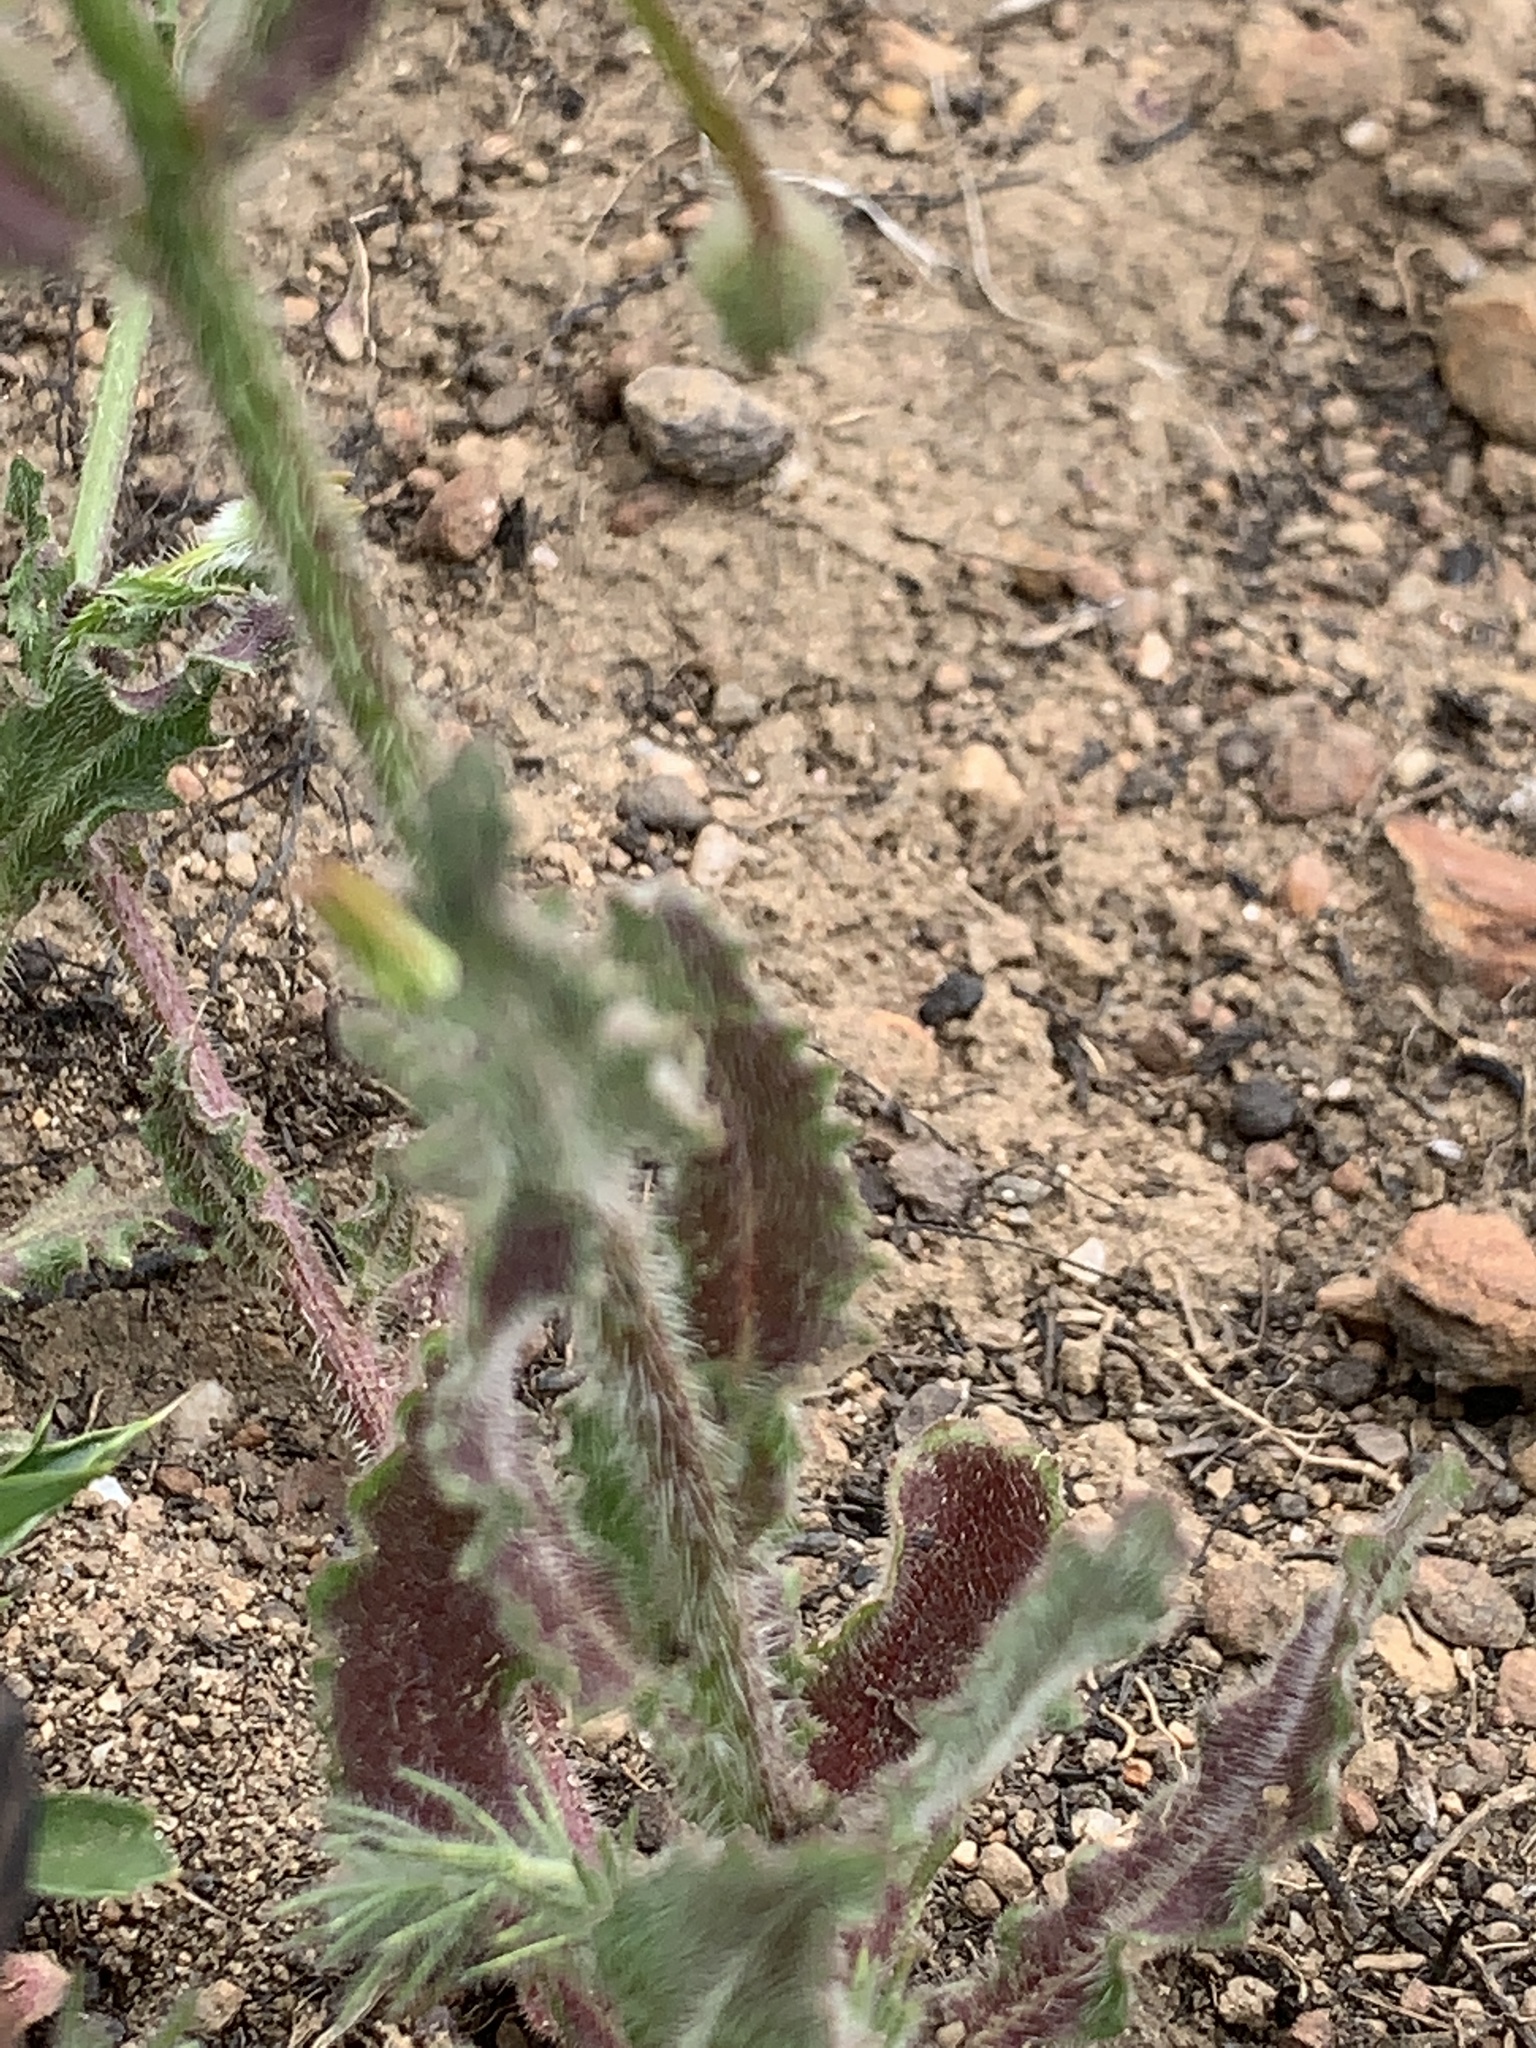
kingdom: Plantae
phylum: Tracheophyta
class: Magnoliopsida
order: Asterales
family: Campanulaceae
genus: Wahlenbergia
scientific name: Wahlenbergia capensis
